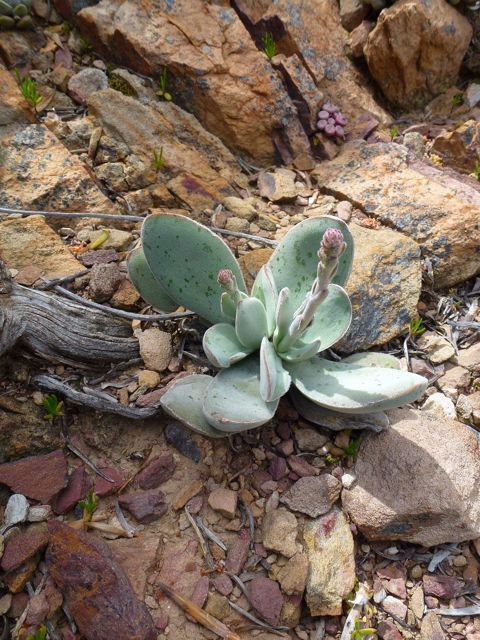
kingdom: Plantae
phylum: Tracheophyta
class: Magnoliopsida
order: Saxifragales
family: Crassulaceae
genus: Crassula
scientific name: Crassula cotyledonis
